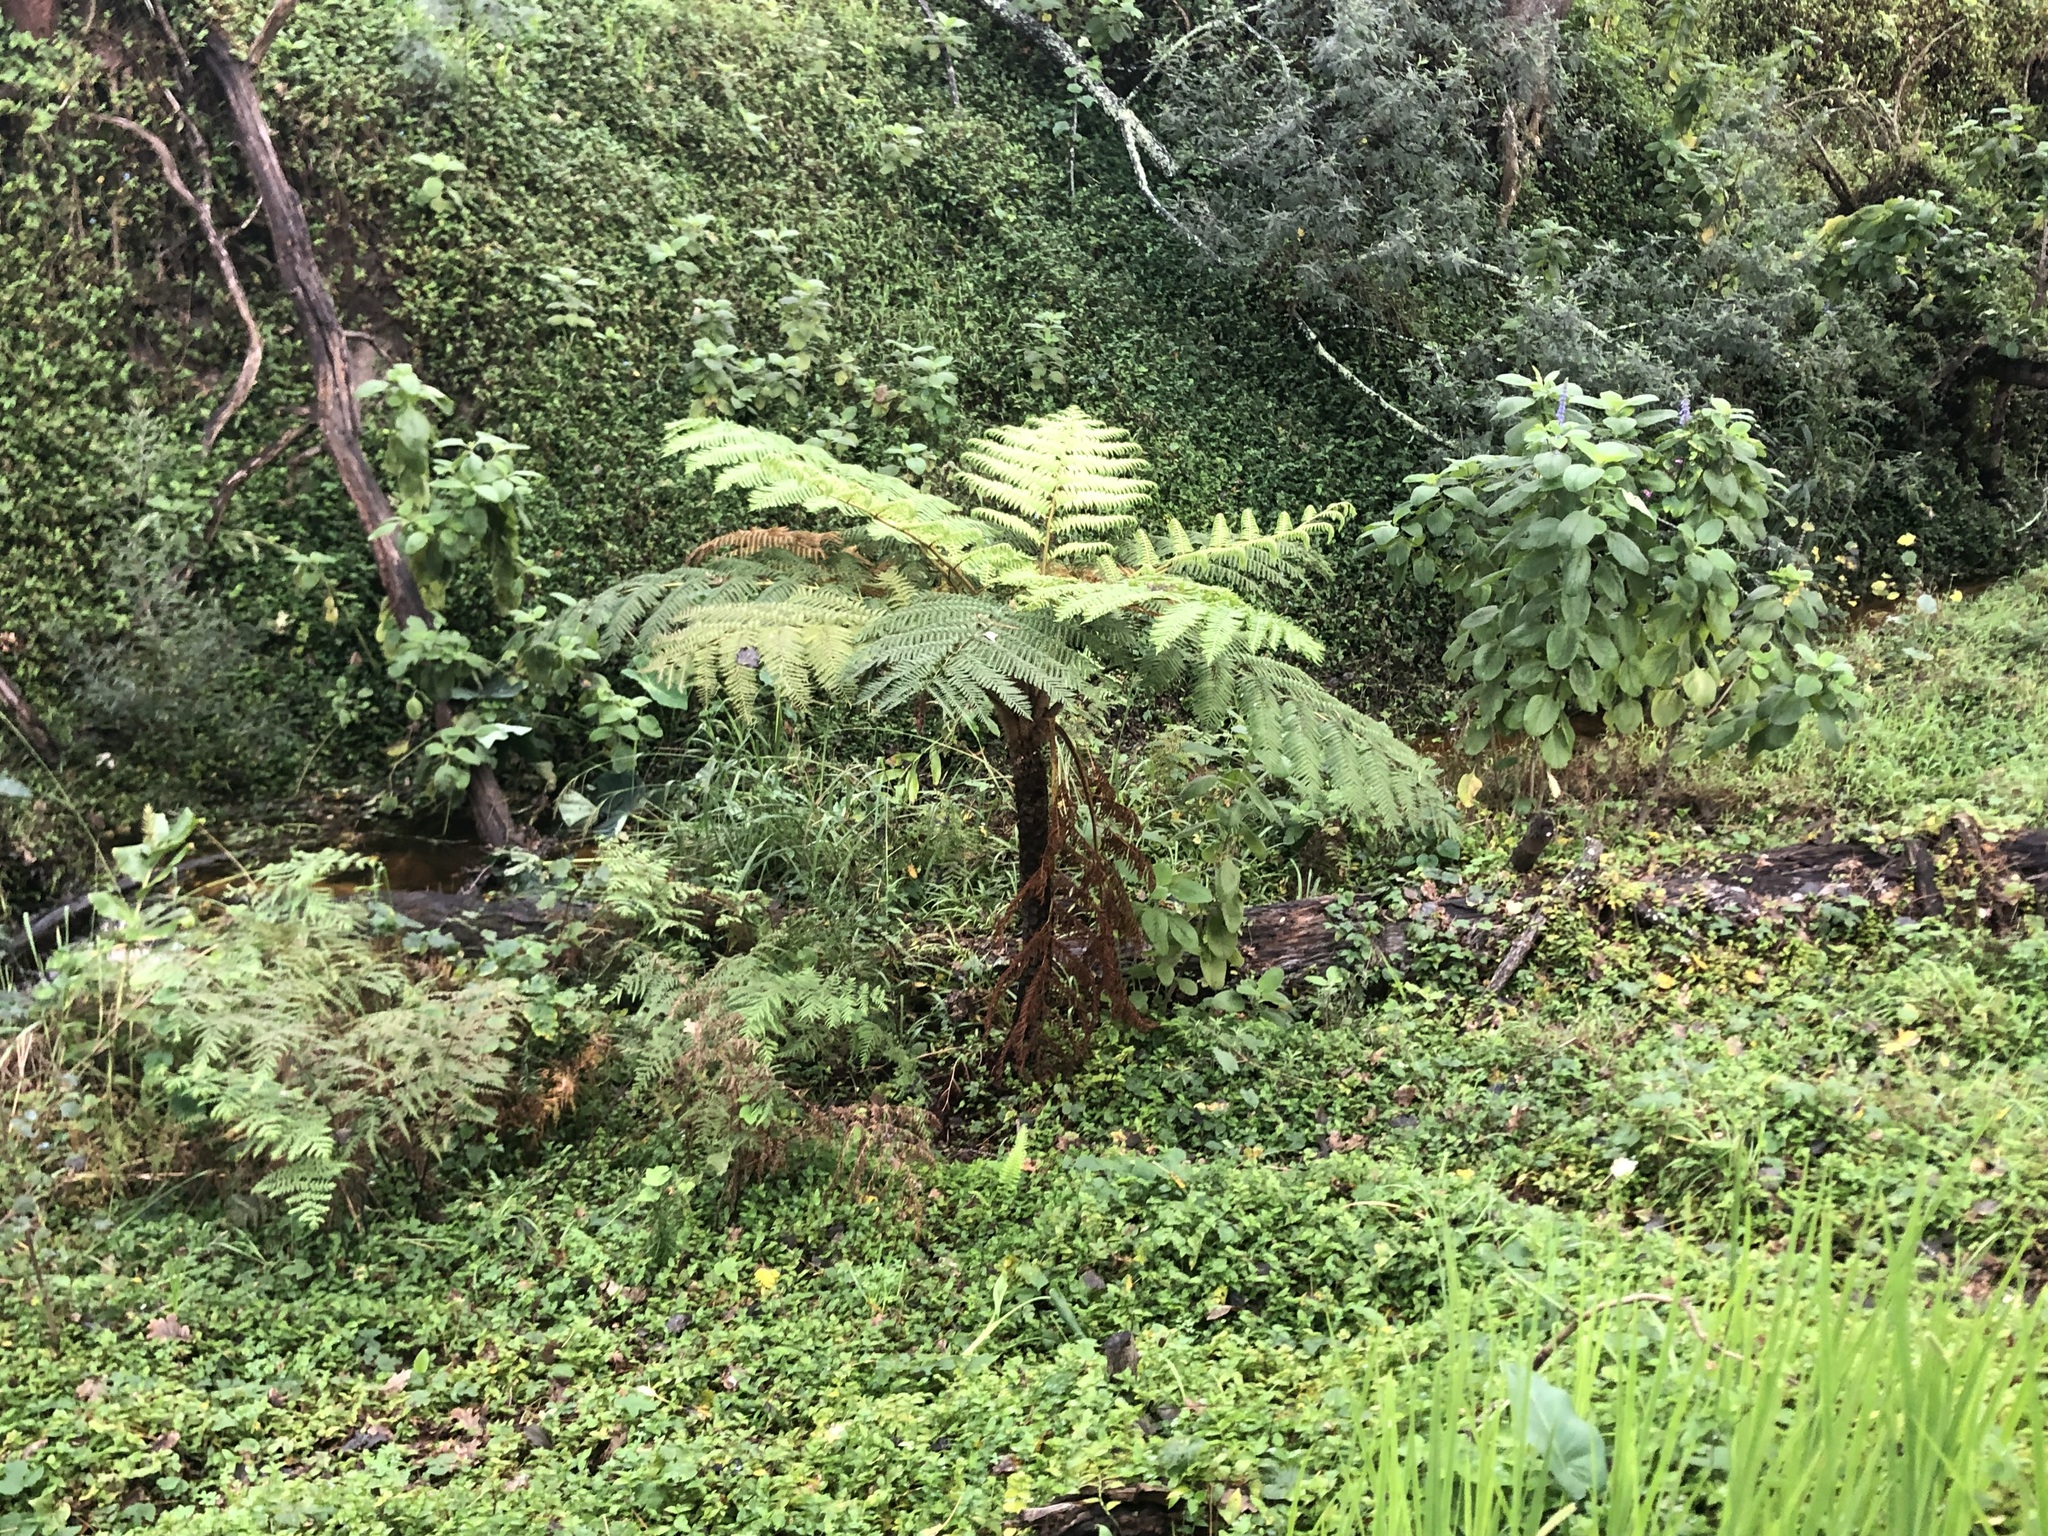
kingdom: Plantae
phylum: Tracheophyta
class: Polypodiopsida
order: Cyatheales
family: Cyatheaceae
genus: Sphaeropteris
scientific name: Sphaeropteris cooperi
